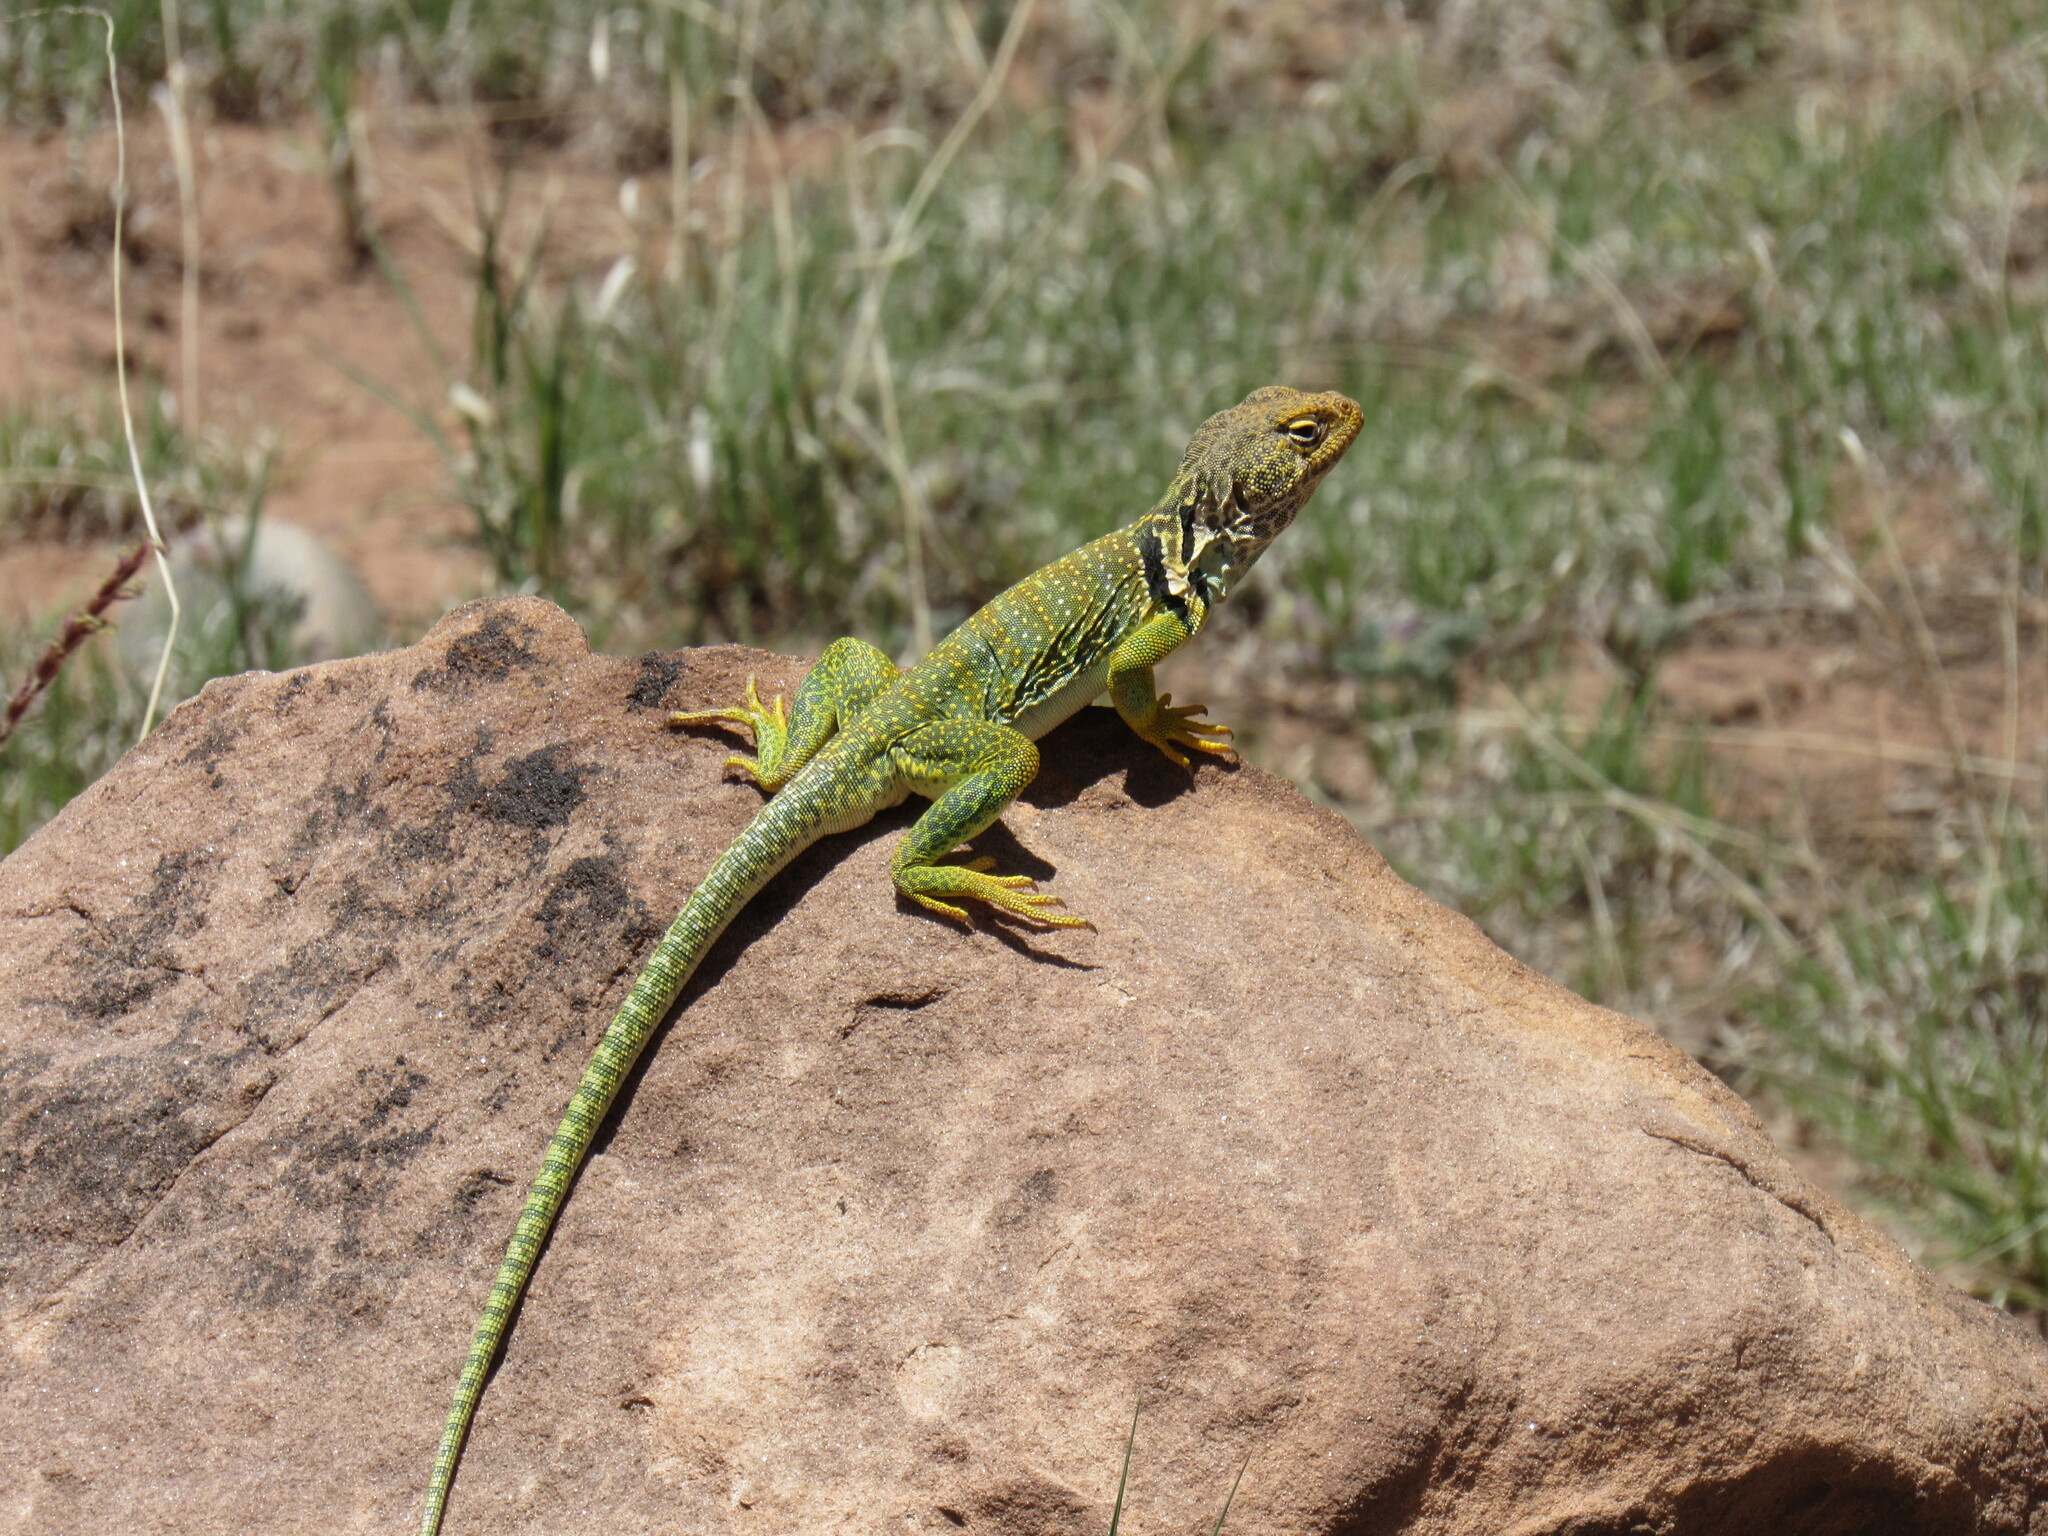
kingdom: Animalia
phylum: Chordata
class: Squamata
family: Crotaphytidae
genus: Crotaphytus
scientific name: Crotaphytus collaris
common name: Collared lizard
